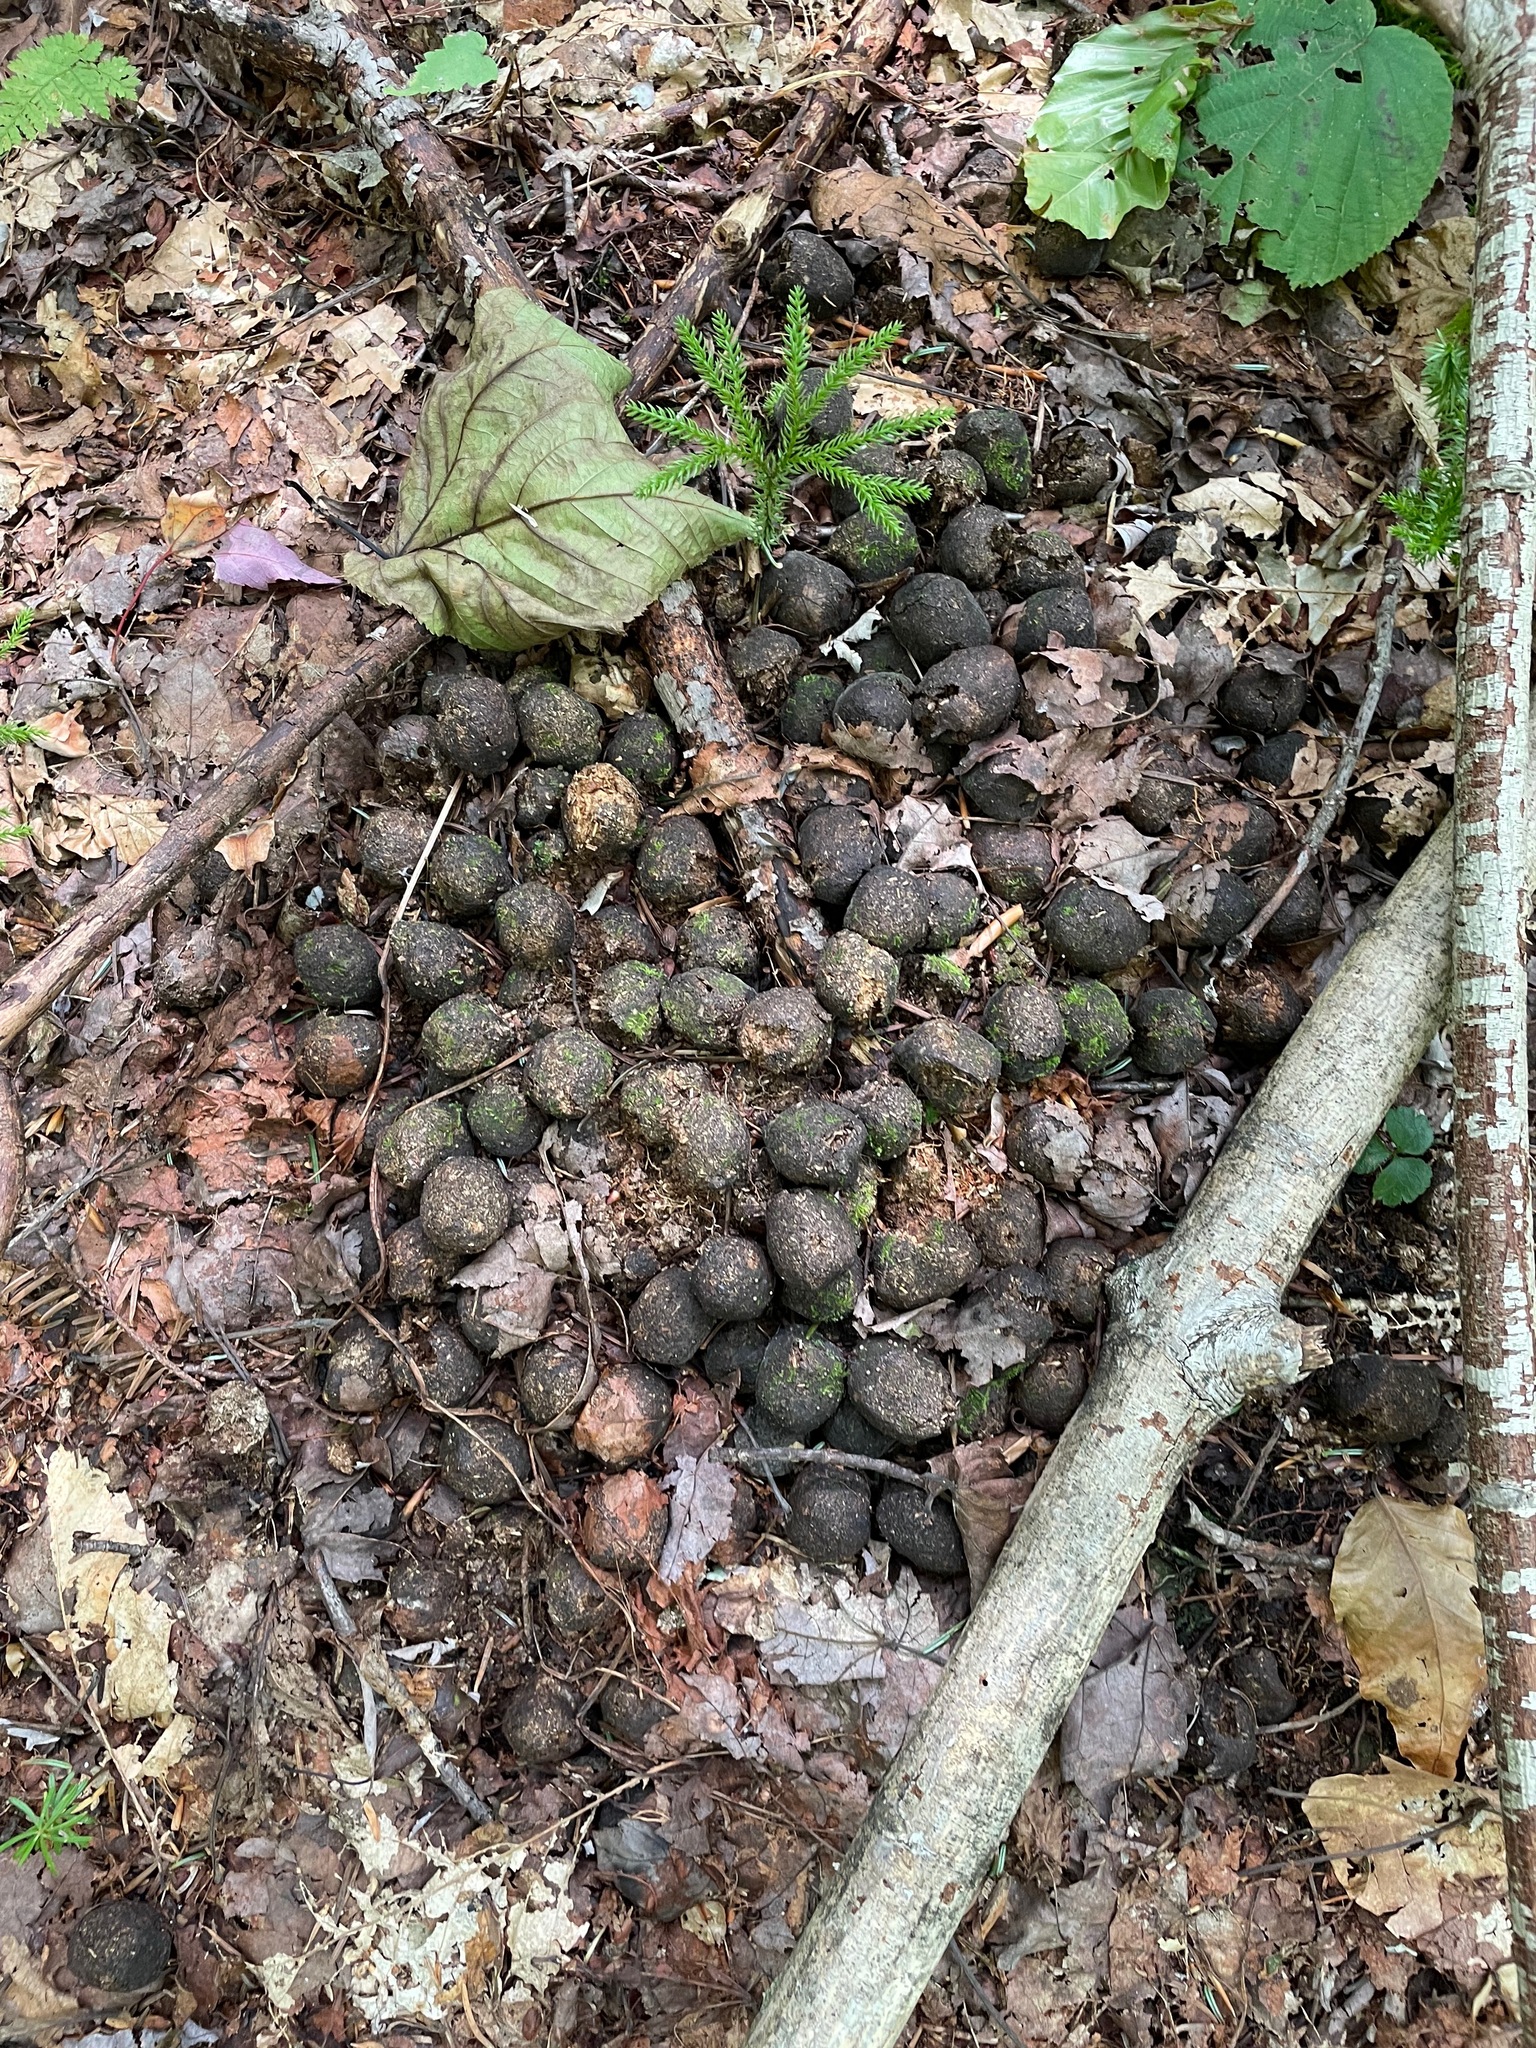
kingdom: Animalia
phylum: Chordata
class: Mammalia
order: Artiodactyla
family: Cervidae
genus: Alces
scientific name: Alces alces
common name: Moose
